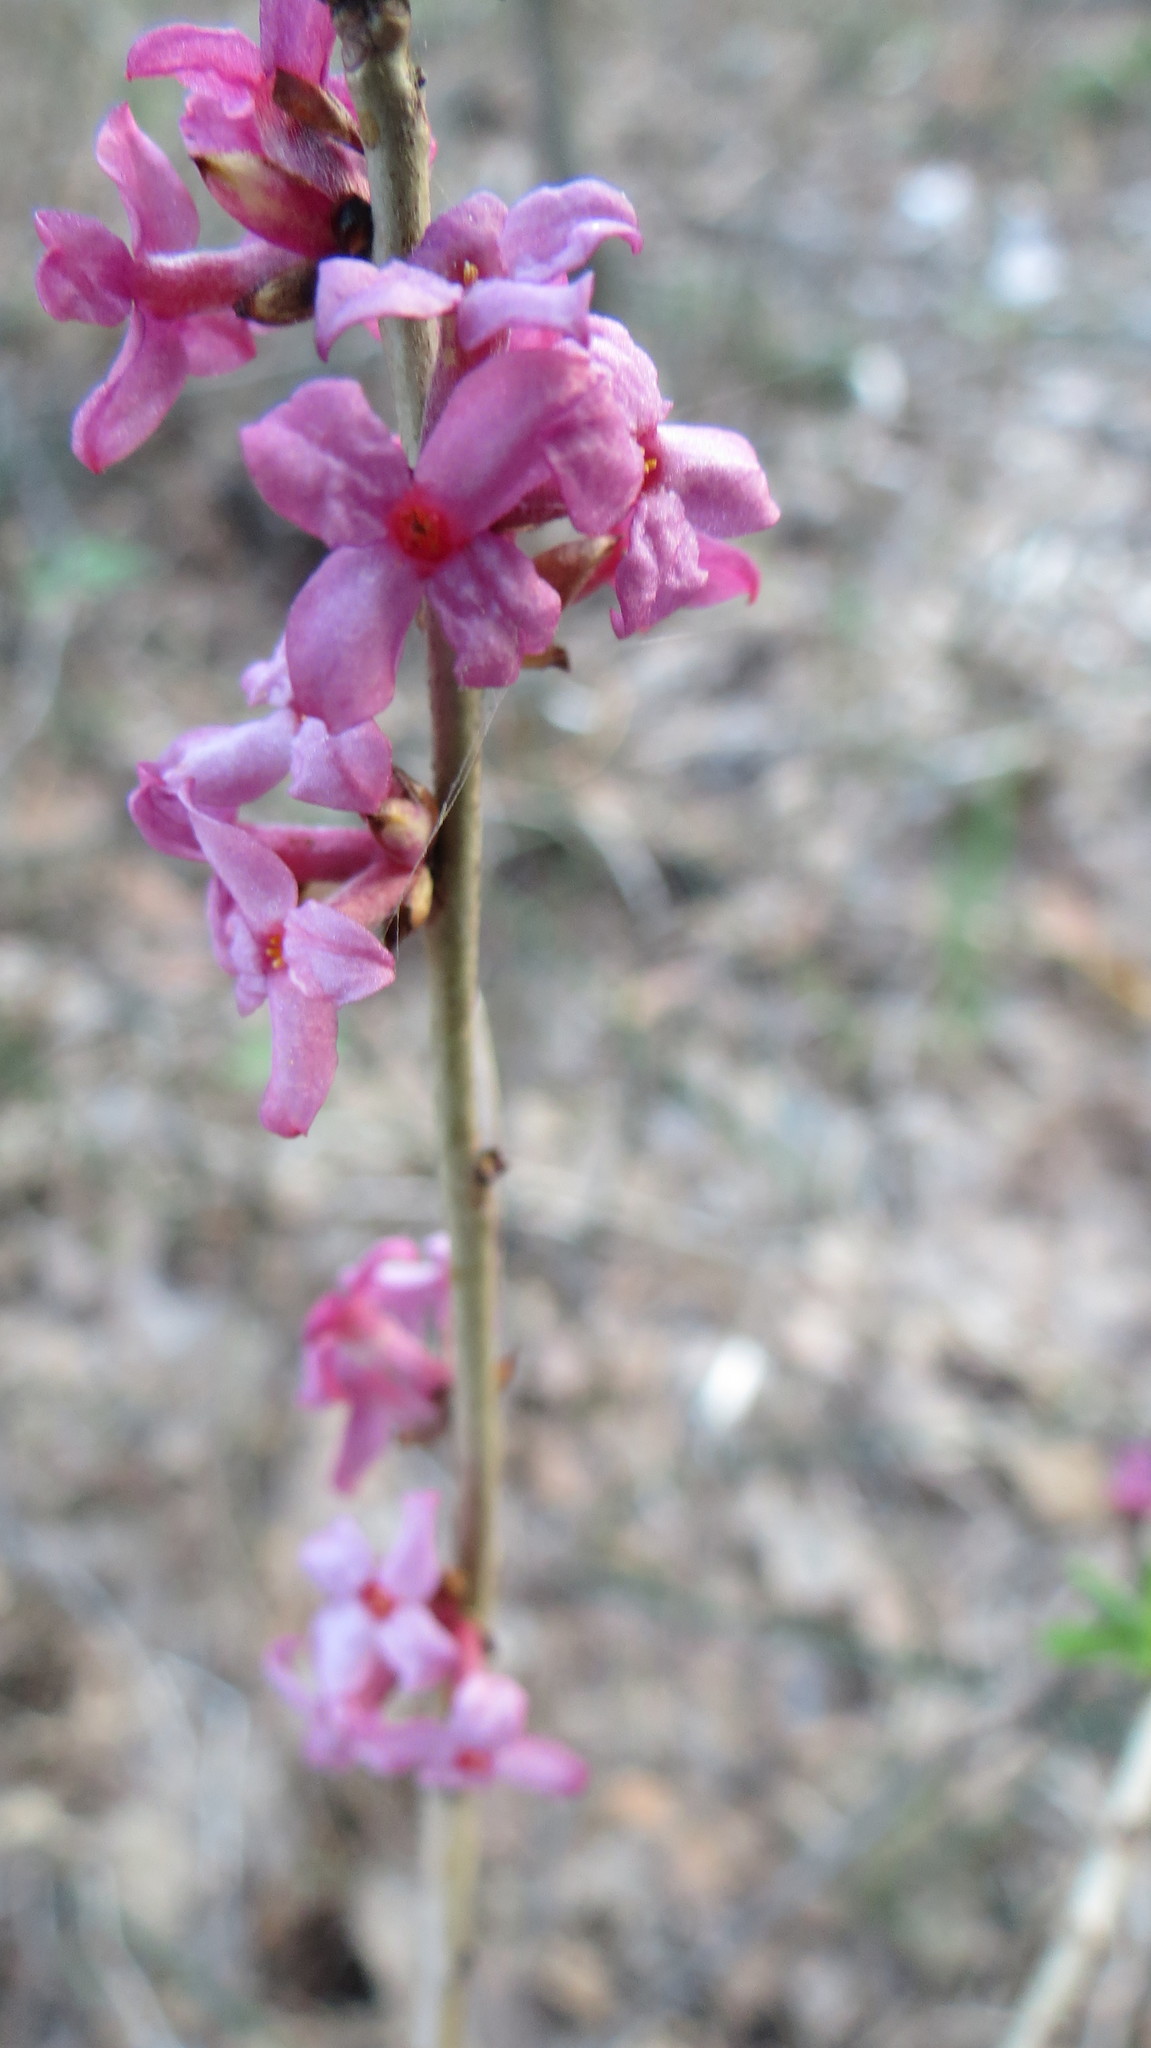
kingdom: Plantae
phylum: Tracheophyta
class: Magnoliopsida
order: Malvales
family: Thymelaeaceae
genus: Daphne
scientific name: Daphne mezereum
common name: Mezereon
